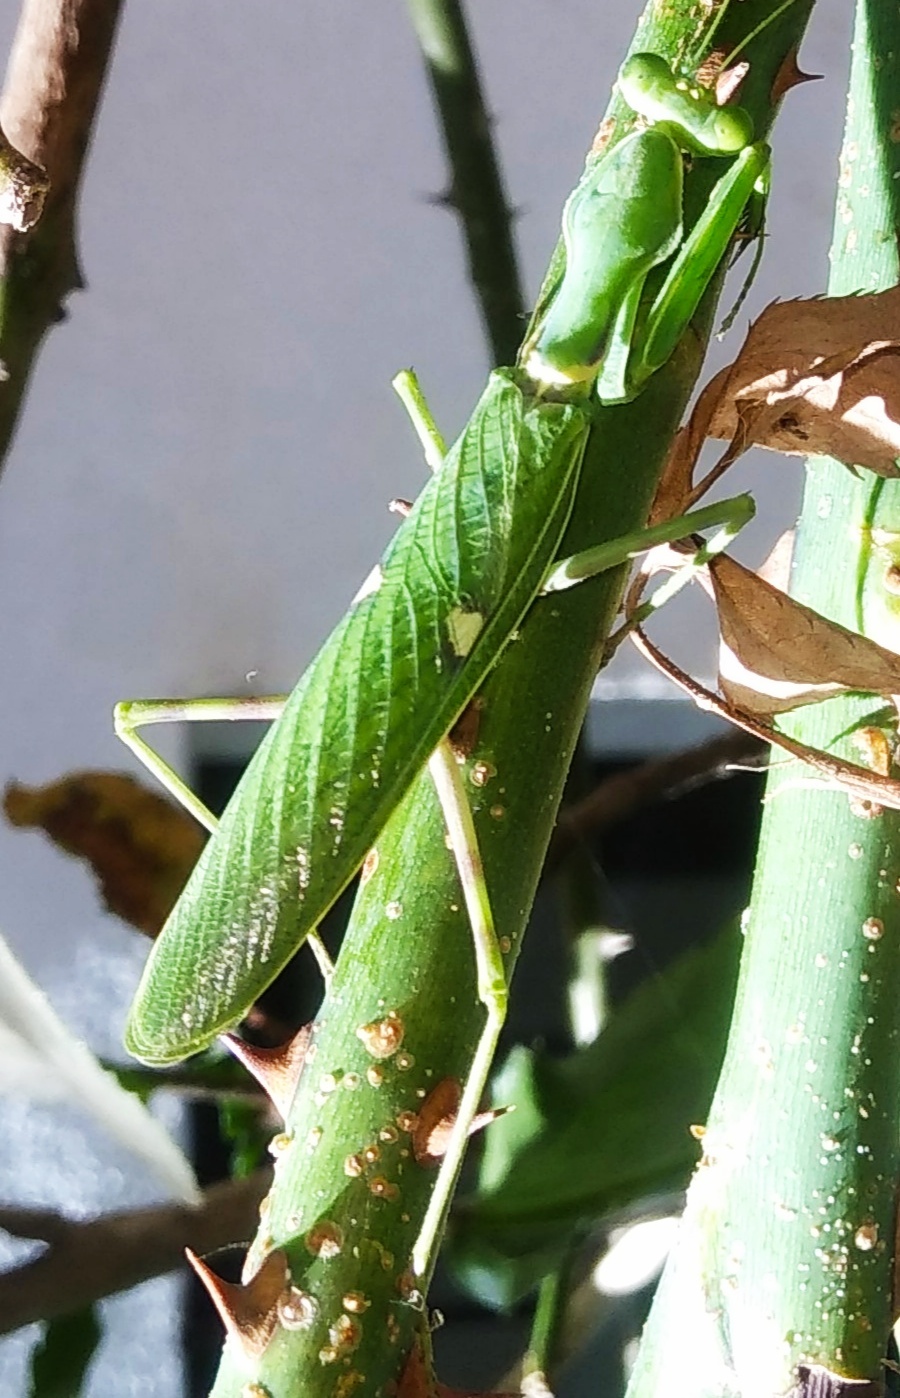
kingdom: Animalia
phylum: Arthropoda
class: Insecta
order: Mantodea
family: Mantidae
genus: Hierodula
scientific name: Hierodula coarctata
